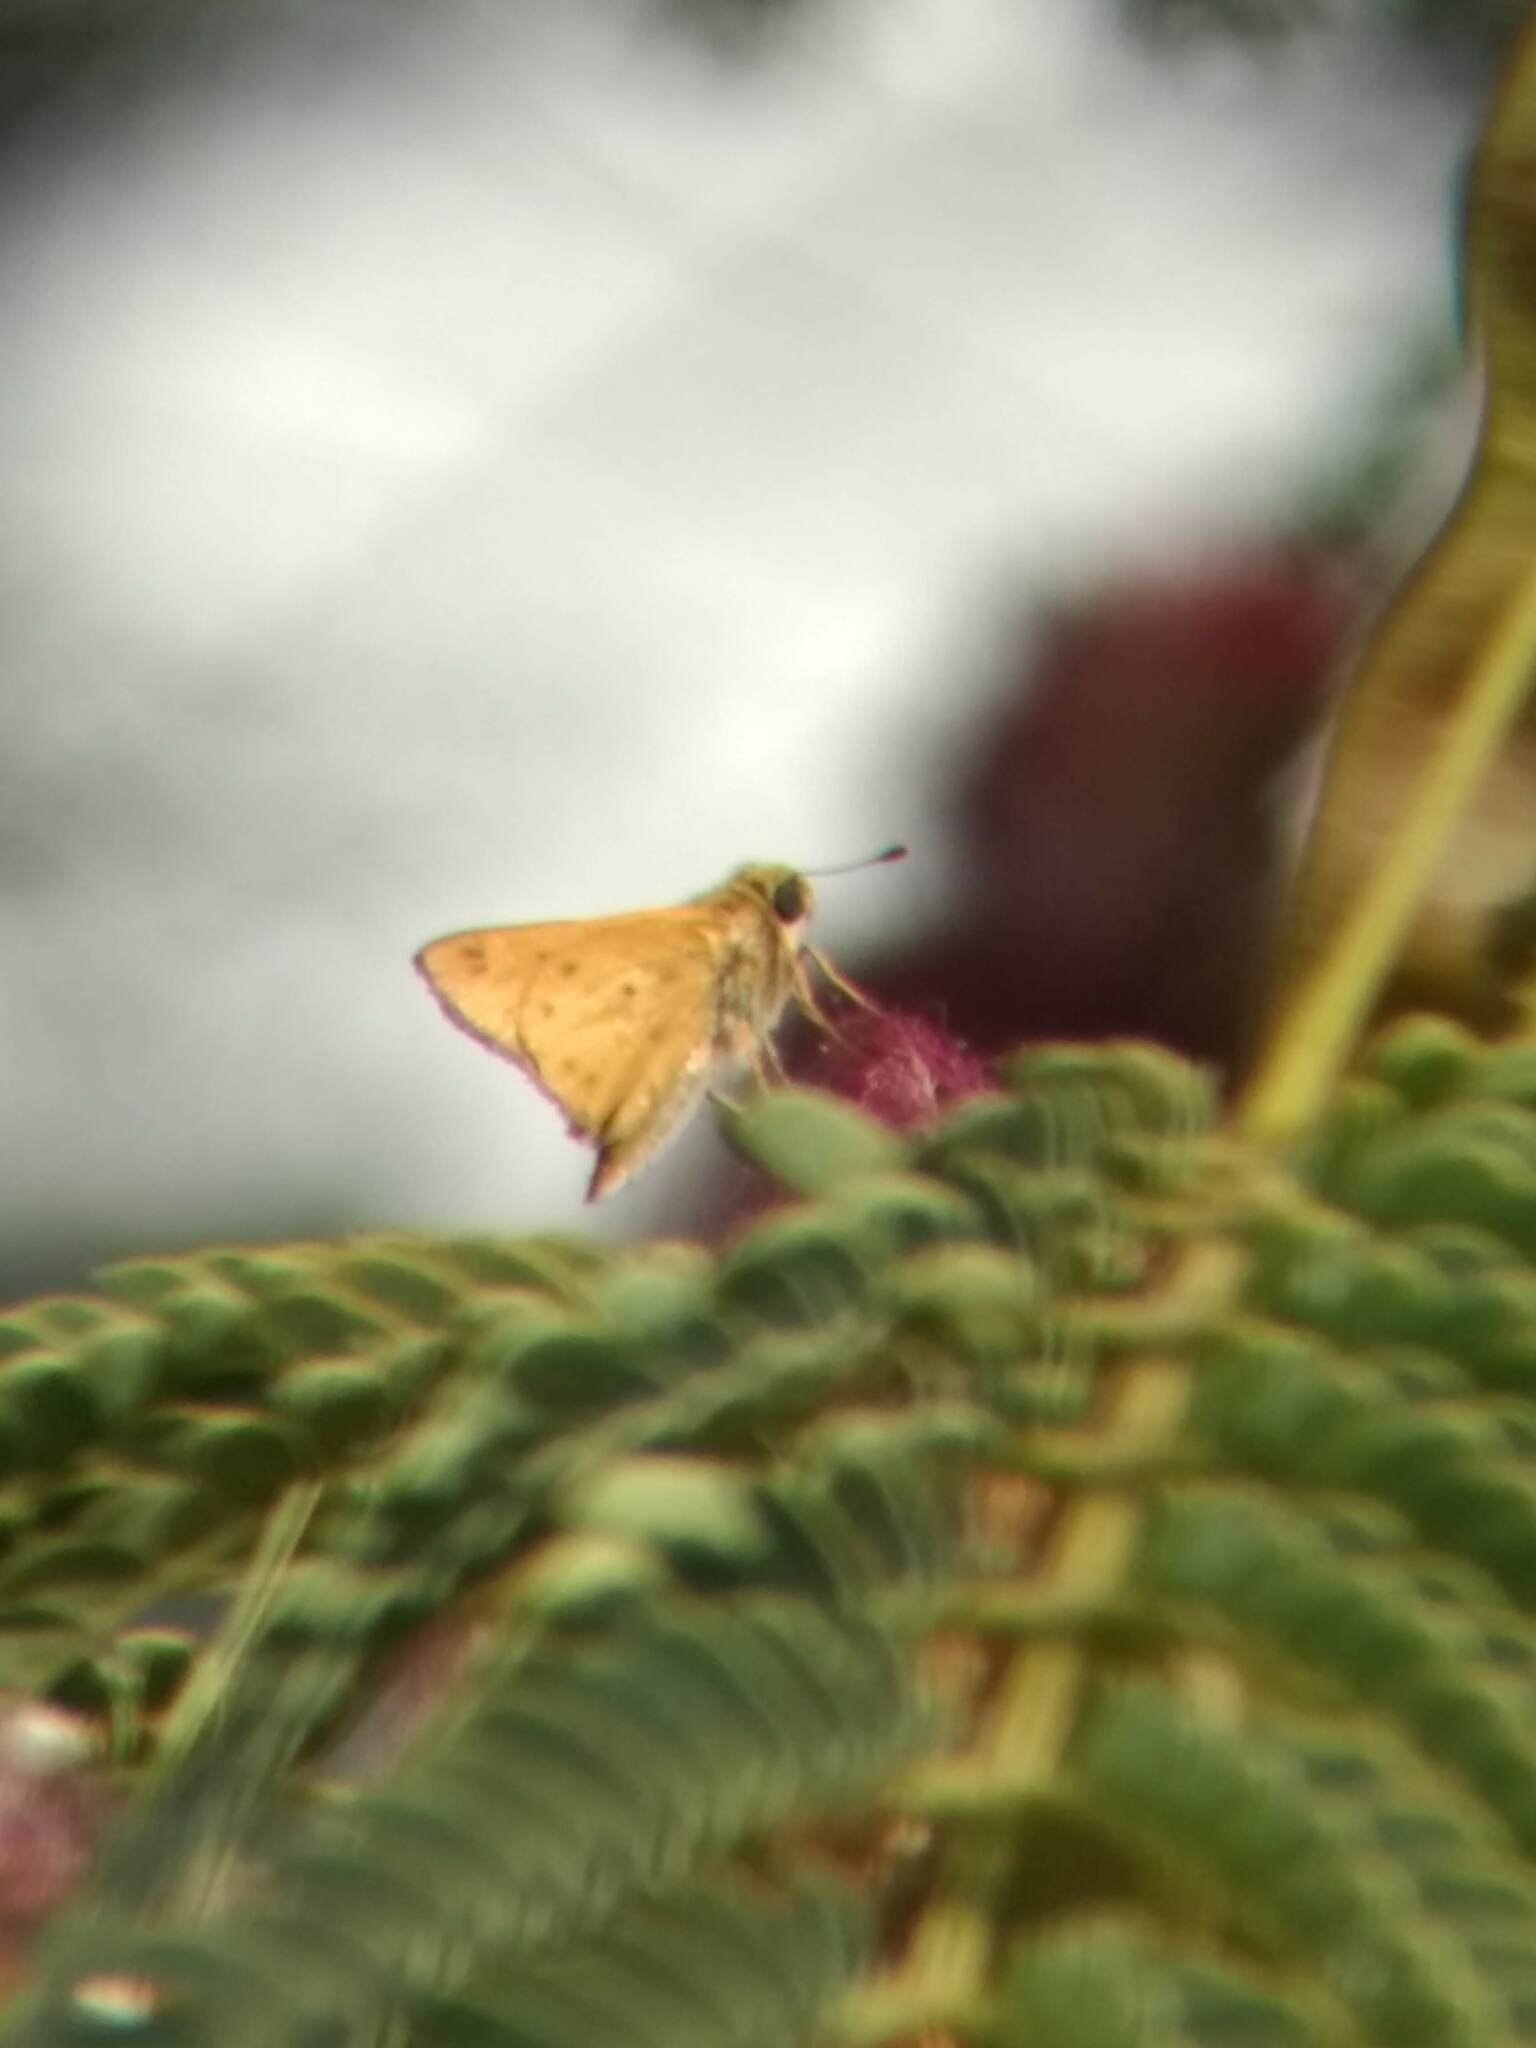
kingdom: Animalia
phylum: Arthropoda
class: Insecta
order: Lepidoptera
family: Hesperiidae
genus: Hylephila
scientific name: Hylephila phyleus
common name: Fiery skipper
